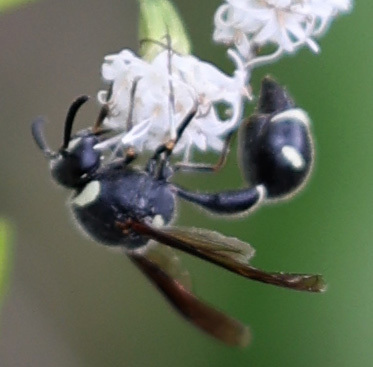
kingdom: Animalia
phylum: Arthropoda
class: Insecta
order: Hymenoptera
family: Vespidae
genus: Eumenes
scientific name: Eumenes fraternus
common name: Fraternal potter wasp
